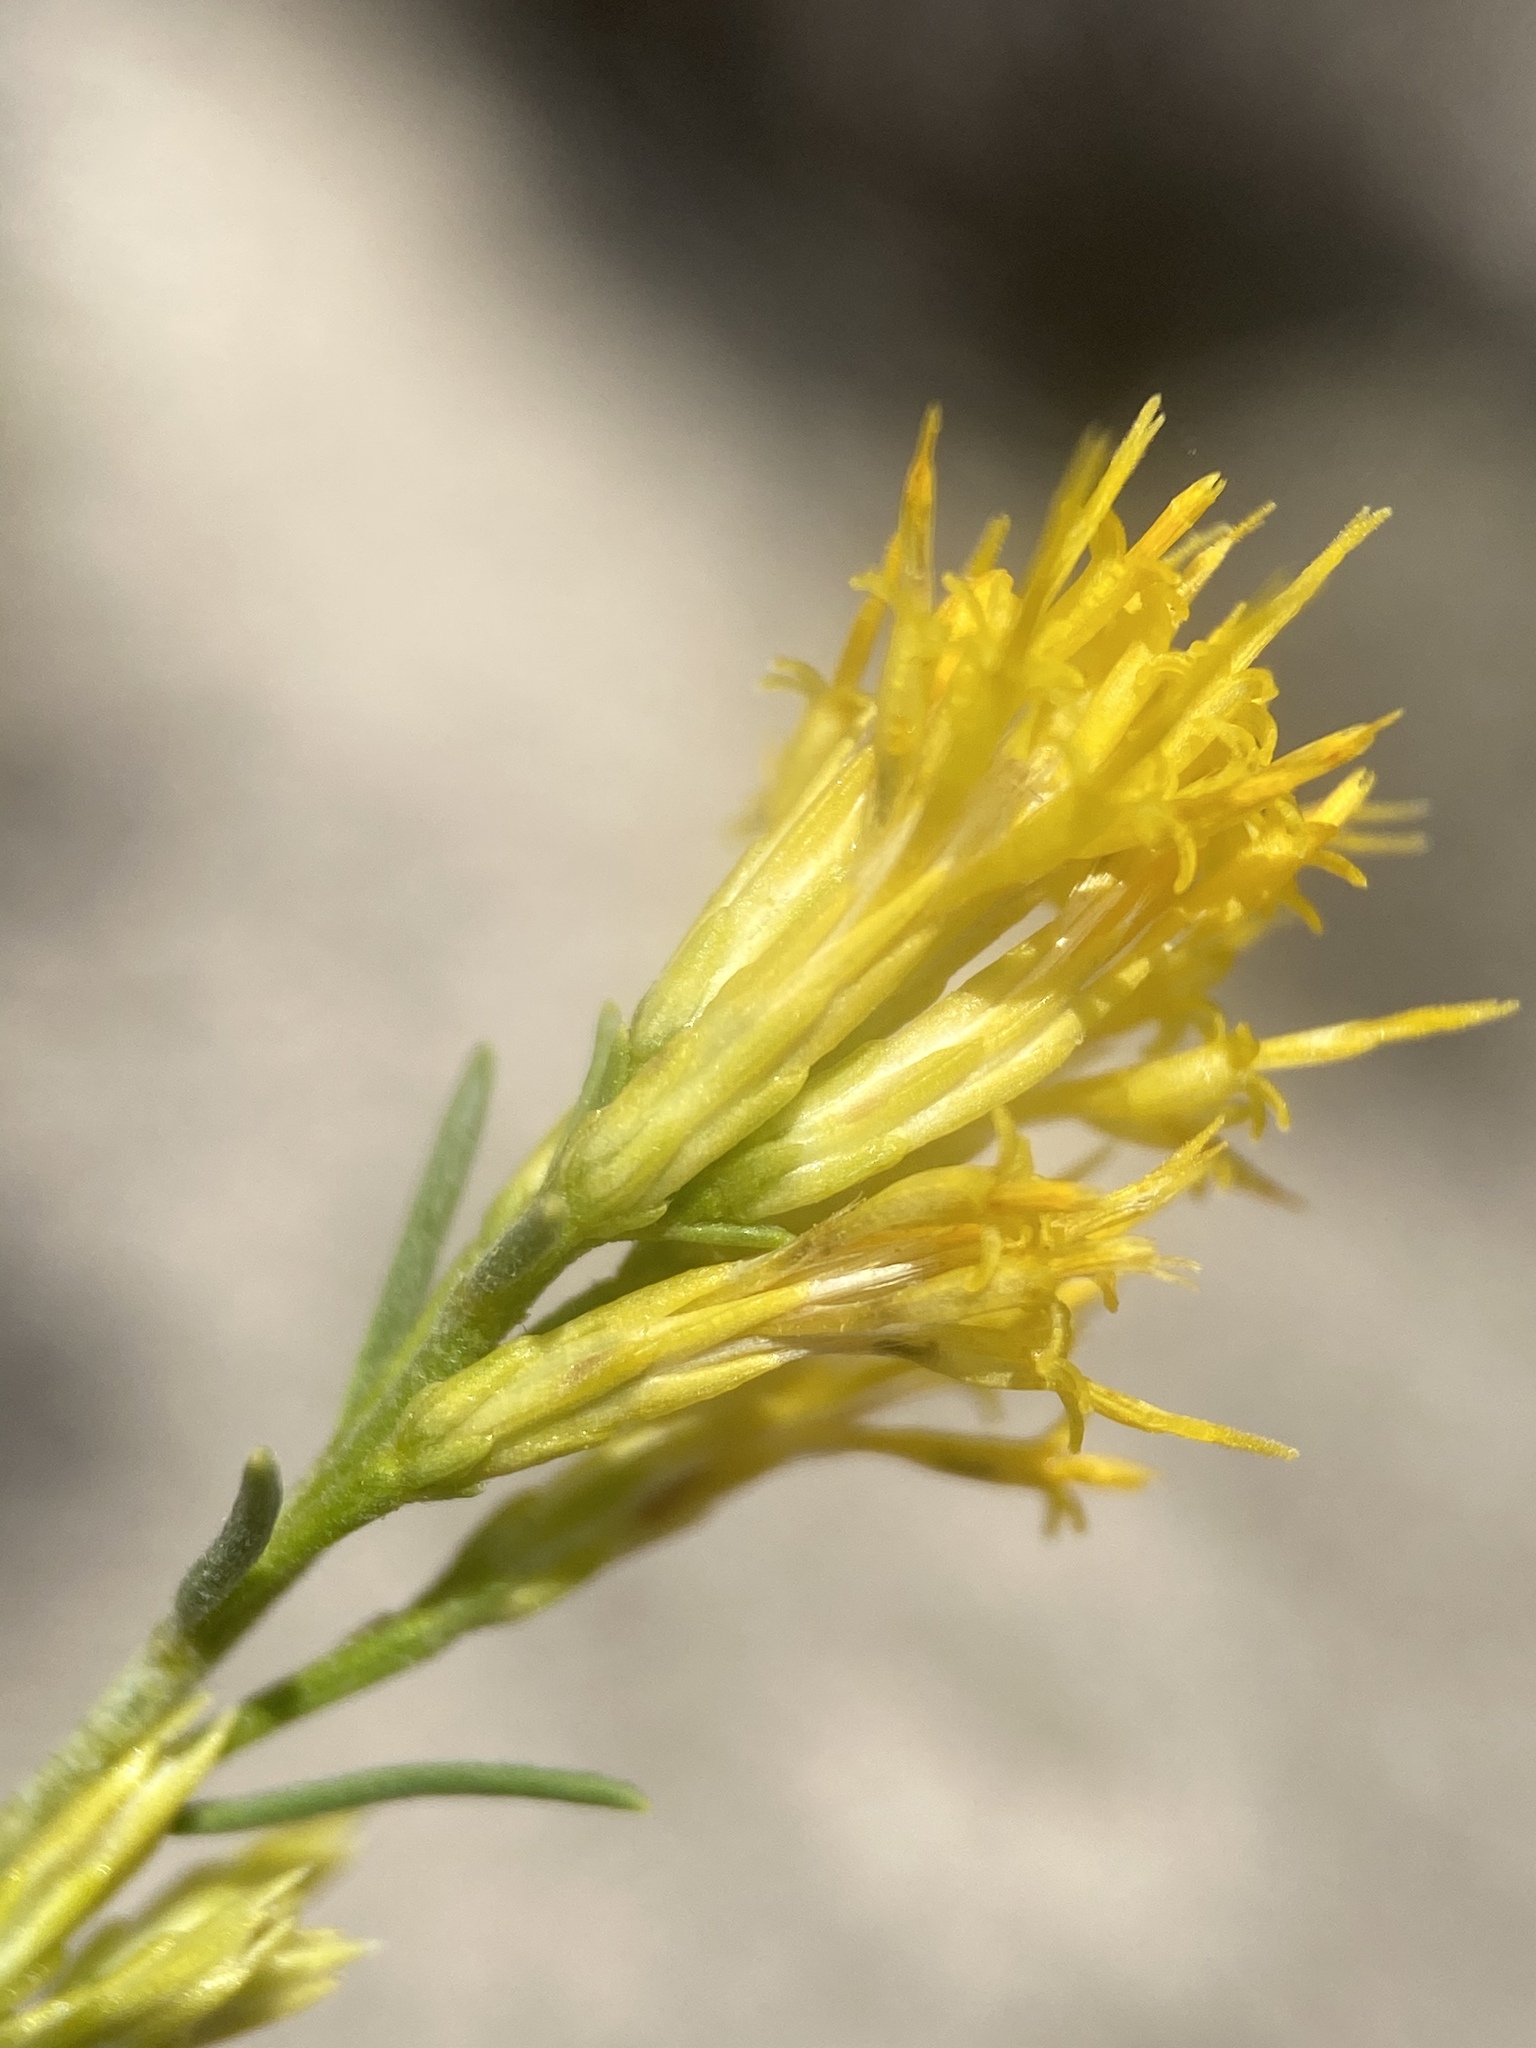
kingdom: Plantae
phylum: Tracheophyta
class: Magnoliopsida
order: Asterales
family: Asteraceae
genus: Ericameria
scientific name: Ericameria nauseosa
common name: Rubber rabbitbrush
